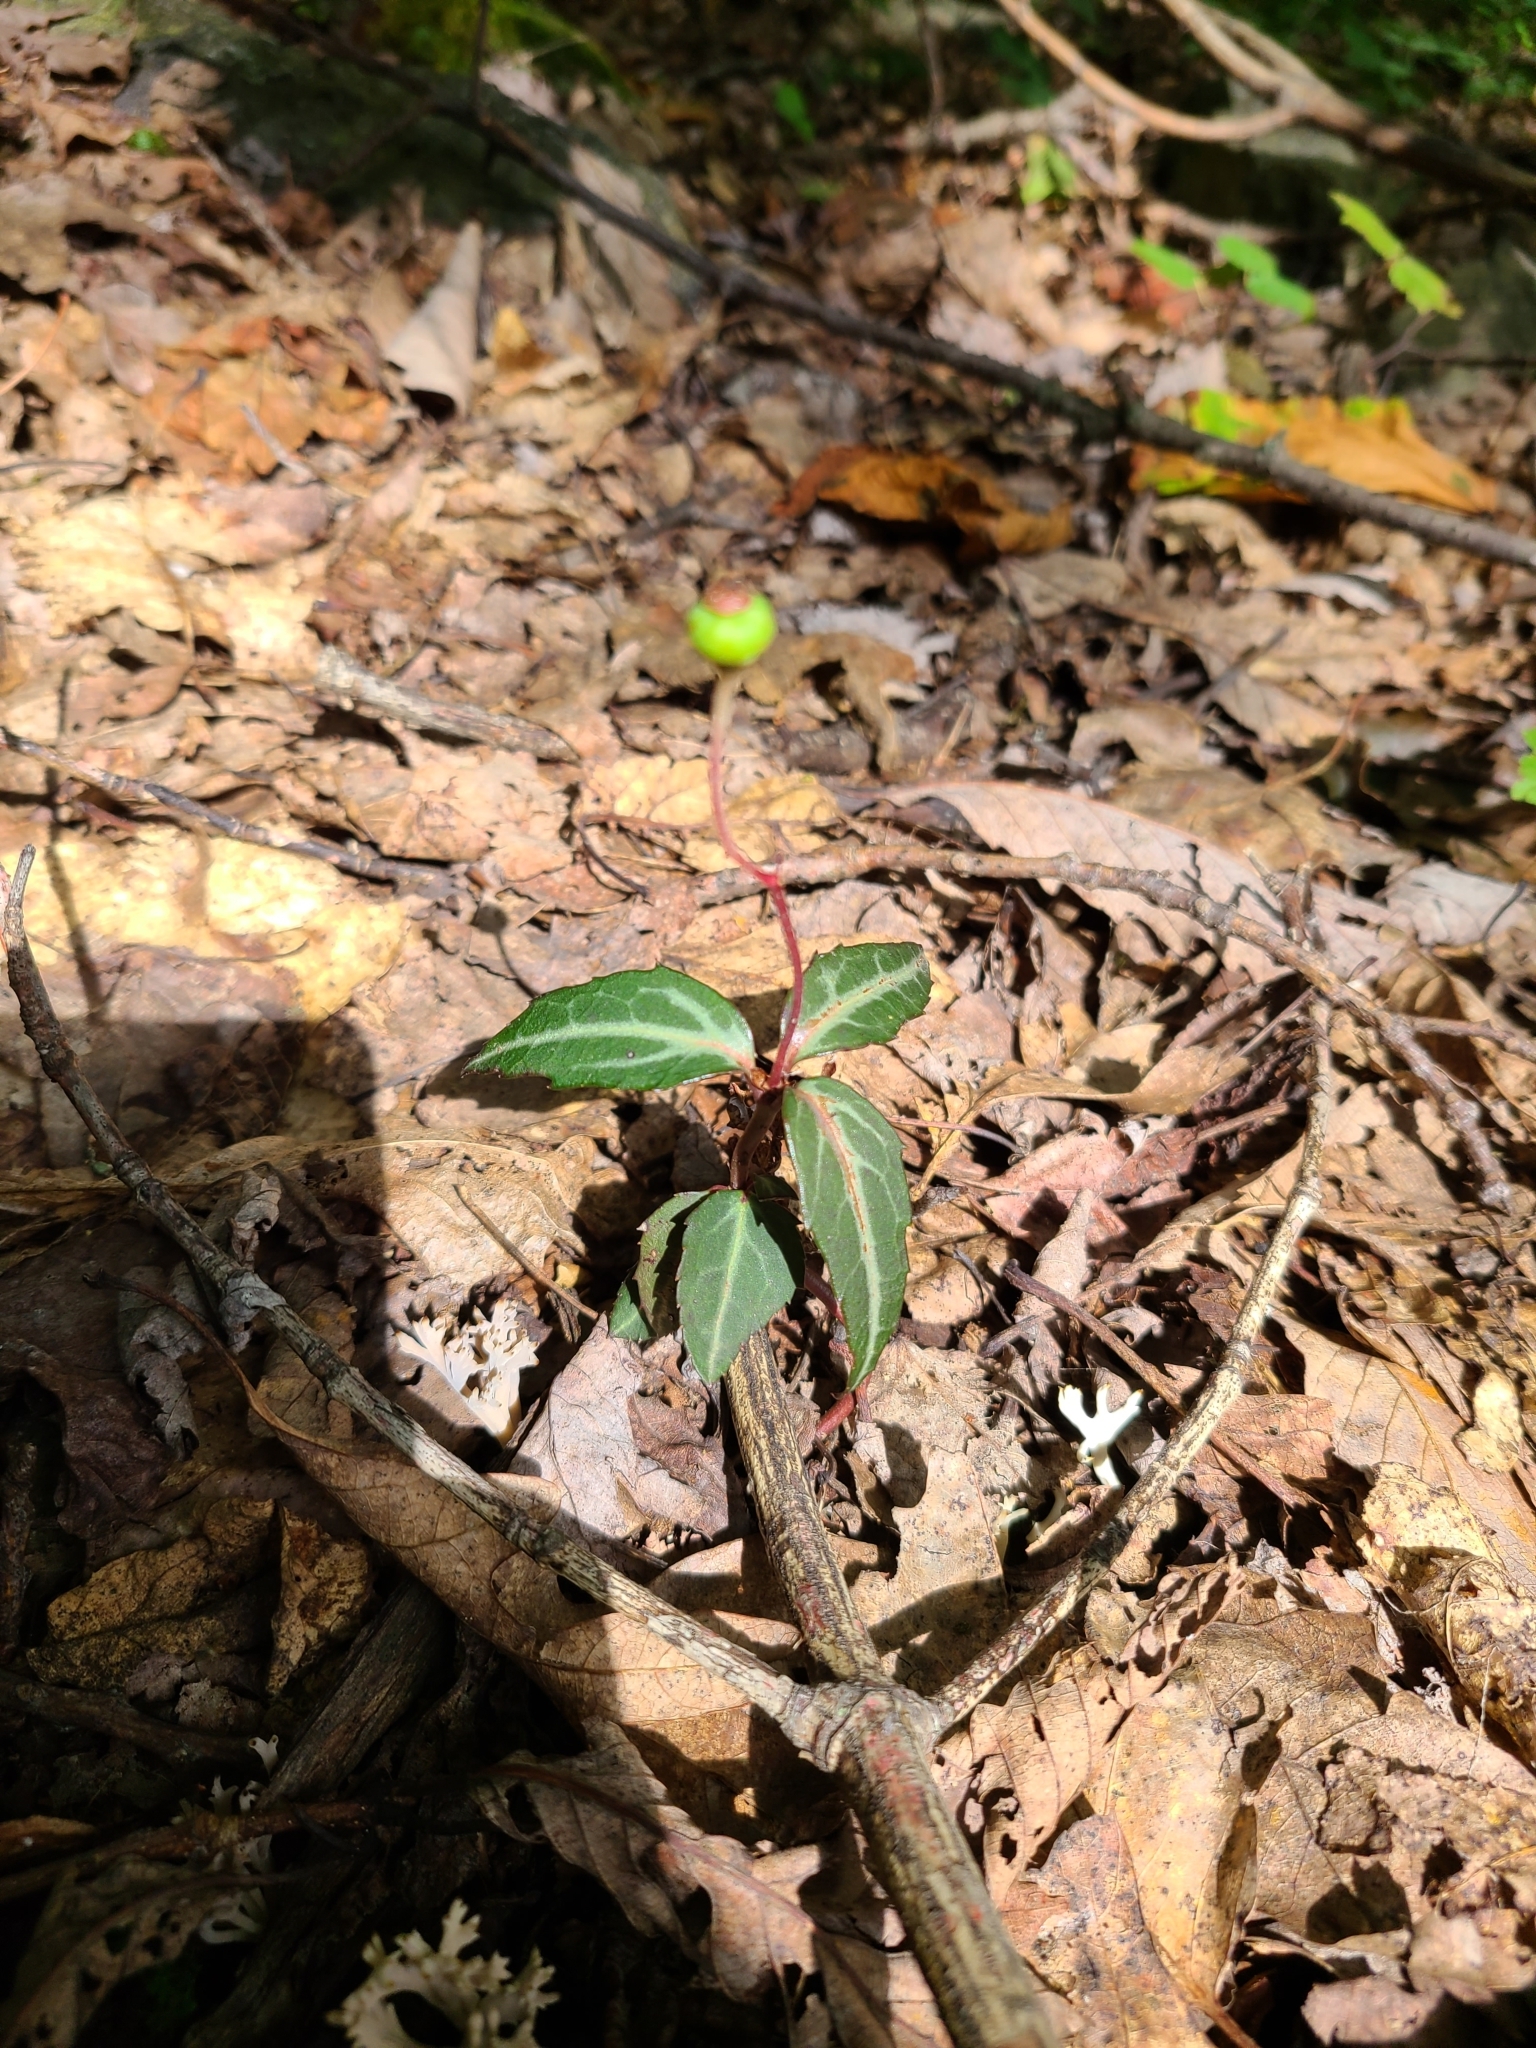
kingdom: Plantae
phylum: Tracheophyta
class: Magnoliopsida
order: Ericales
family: Ericaceae
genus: Chimaphila
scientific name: Chimaphila maculata
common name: Spotted pipsissewa
